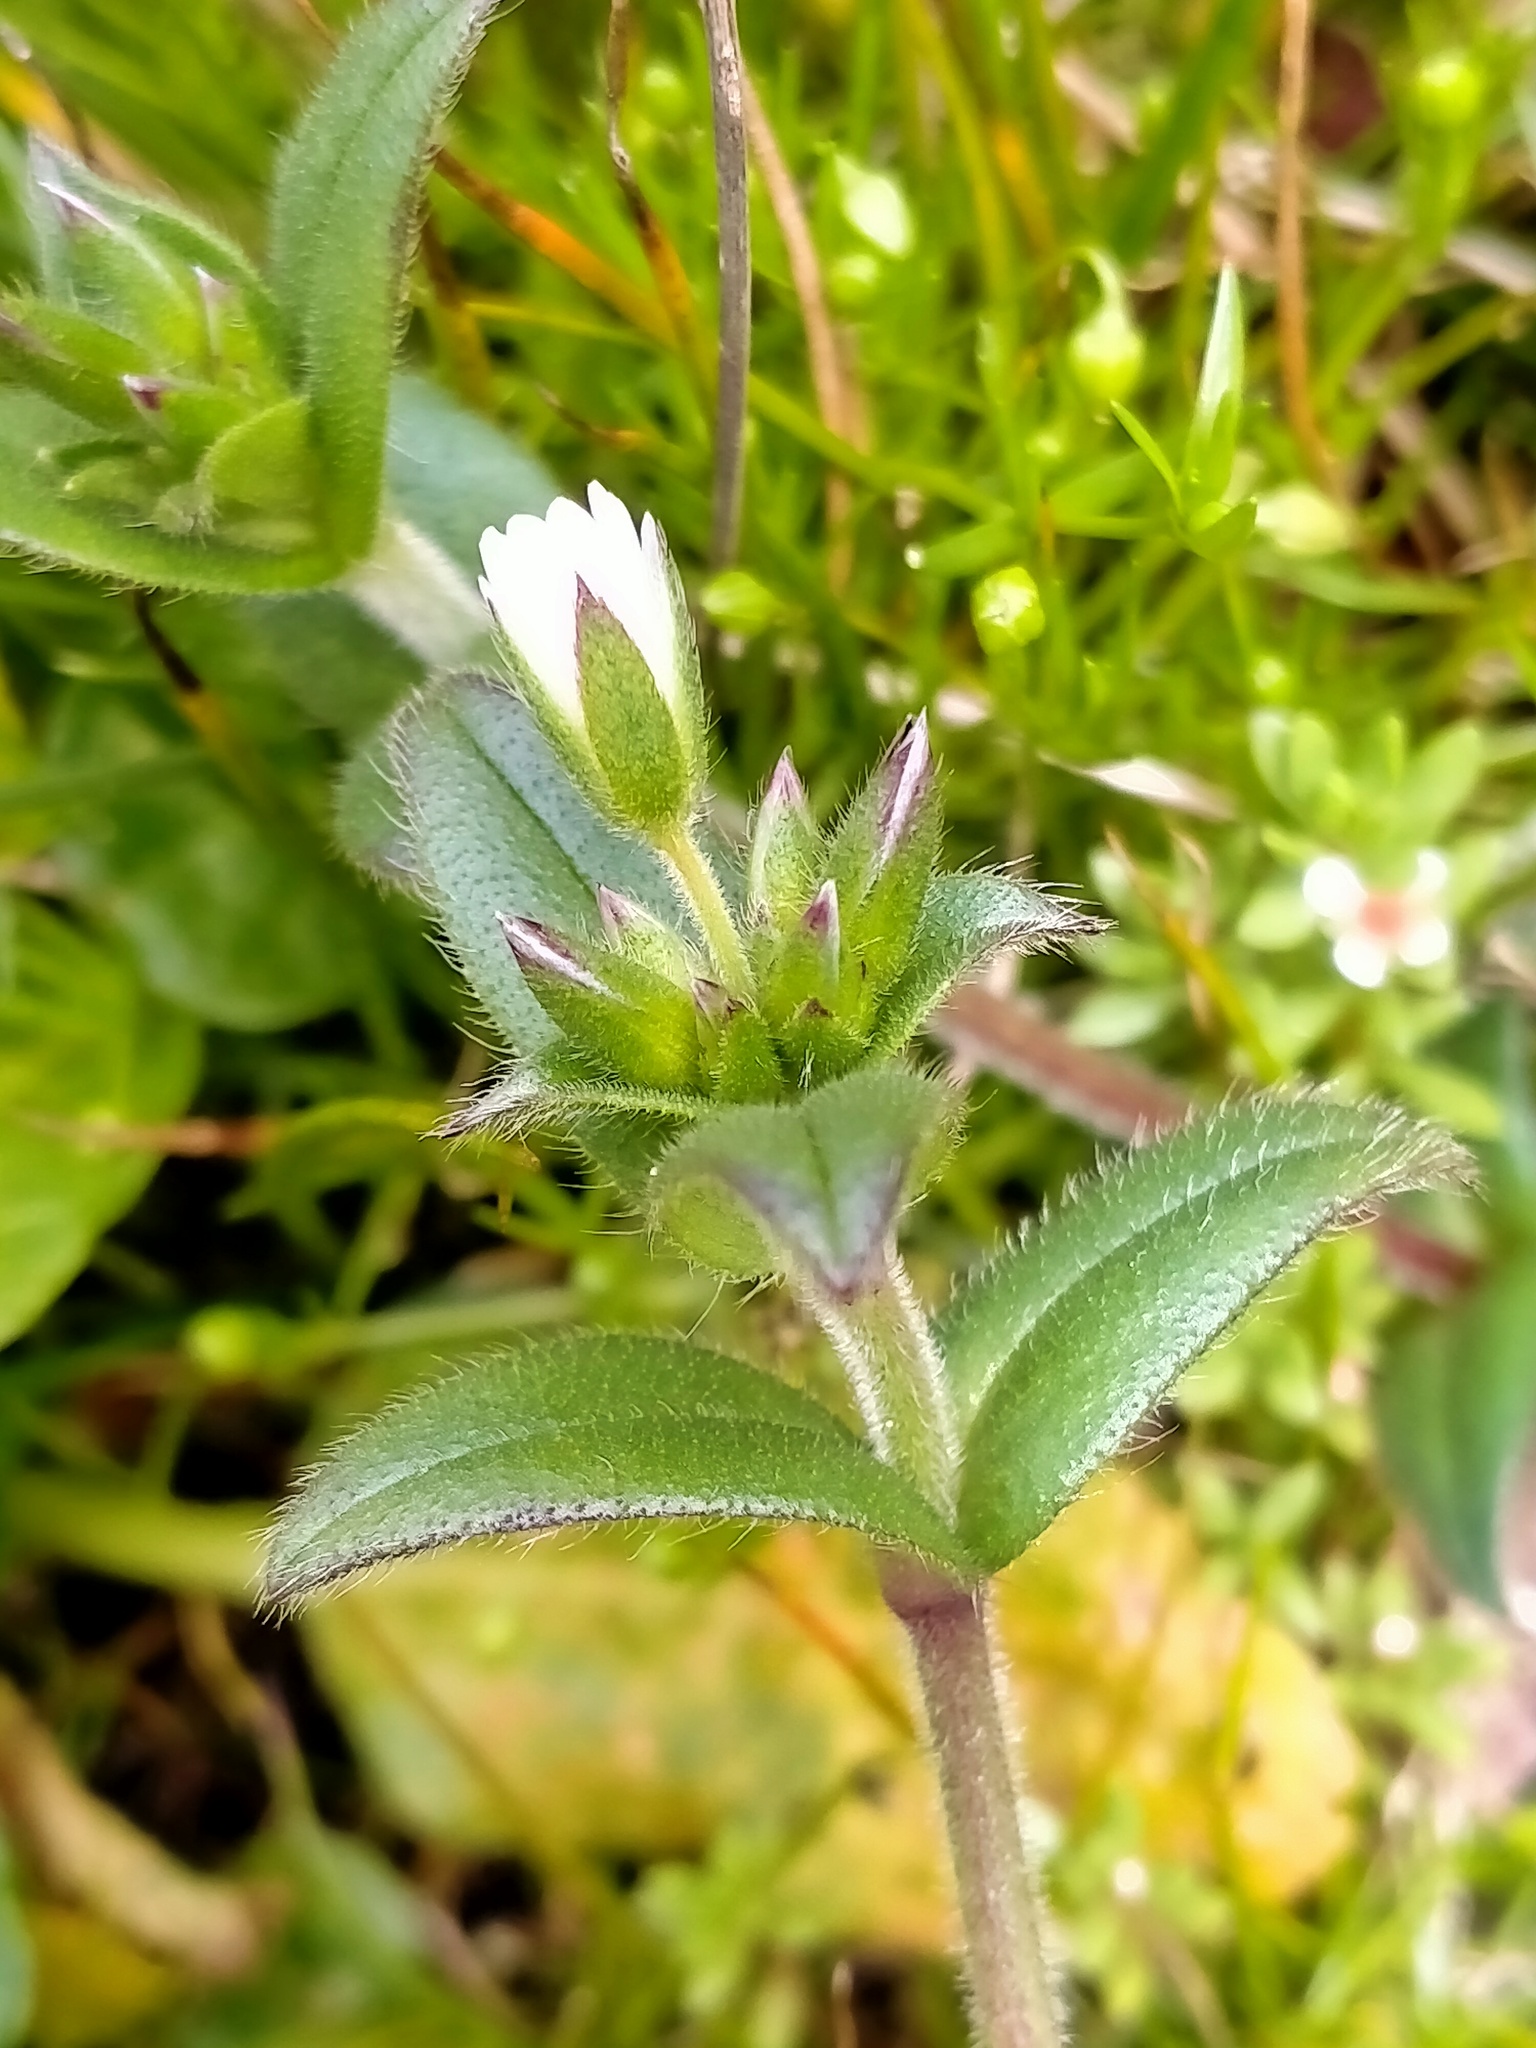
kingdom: Plantae
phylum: Tracheophyta
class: Magnoliopsida
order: Caryophyllales
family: Caryophyllaceae
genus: Cerastium
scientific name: Cerastium fontanum
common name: Common mouse-ear
